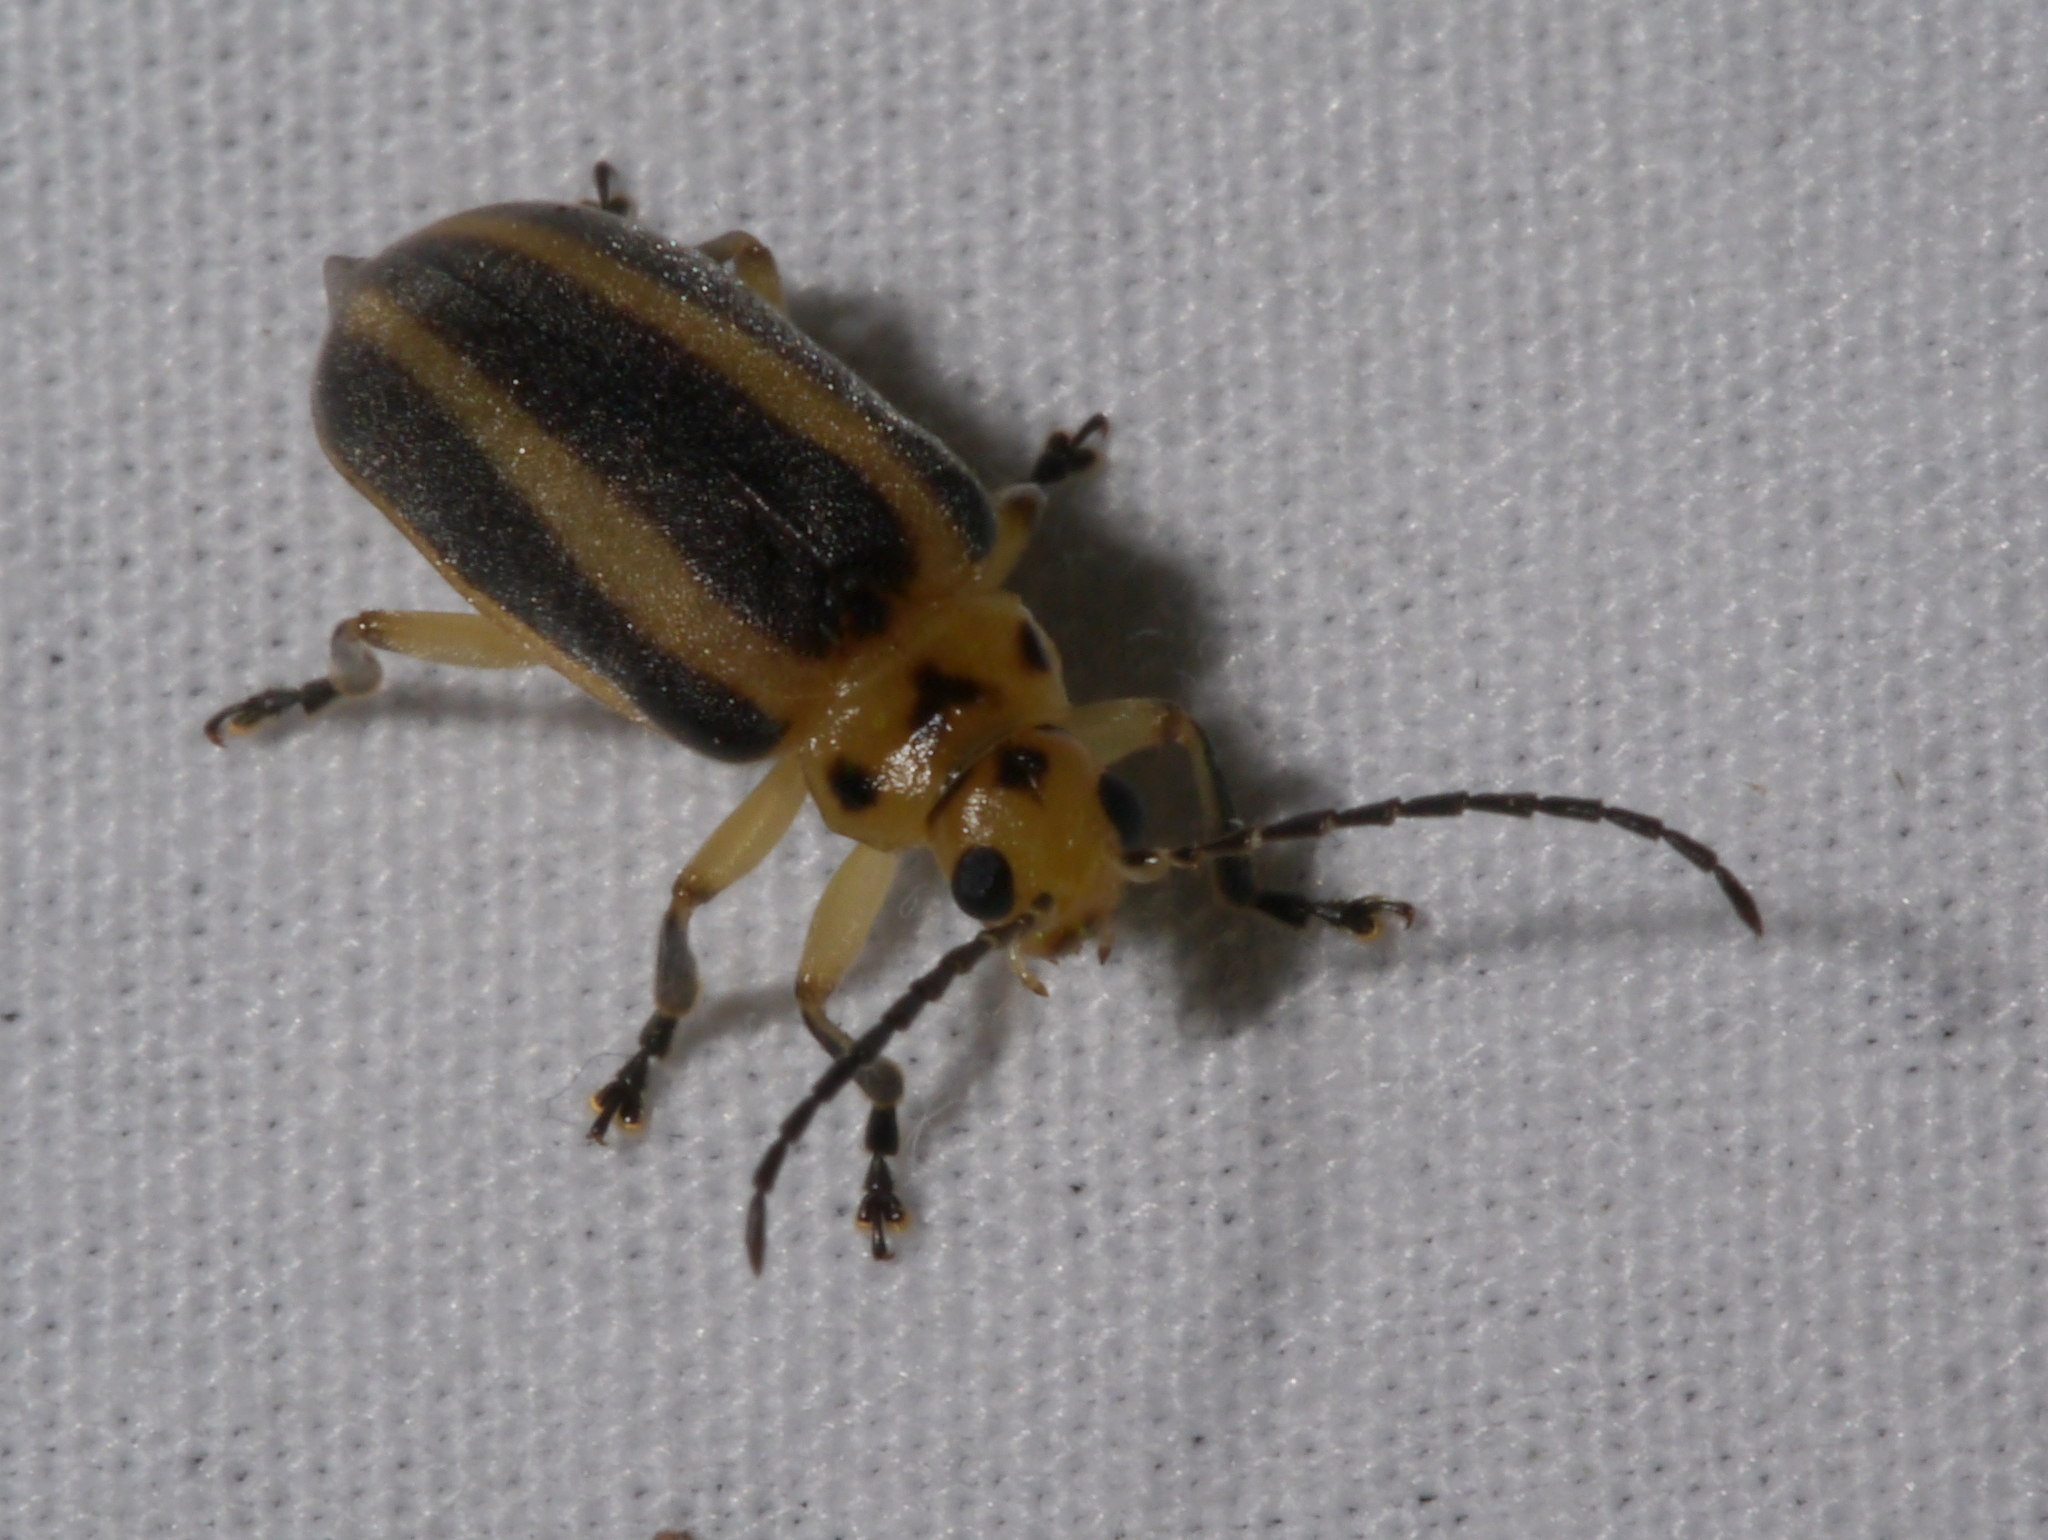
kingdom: Animalia
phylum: Arthropoda
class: Insecta
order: Coleoptera
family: Chrysomelidae
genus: Derospidea
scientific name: Derospidea brevicollis
